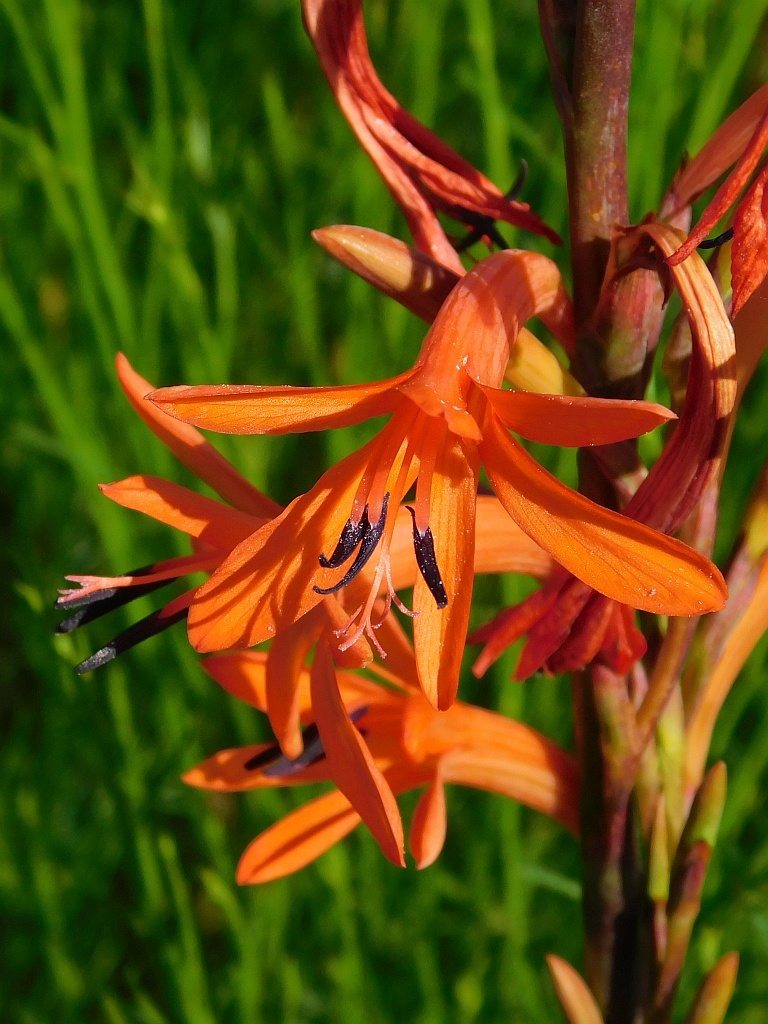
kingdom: Plantae
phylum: Tracheophyta
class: Liliopsida
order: Asparagales
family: Iridaceae
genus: Watsonia
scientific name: Watsonia angusta
